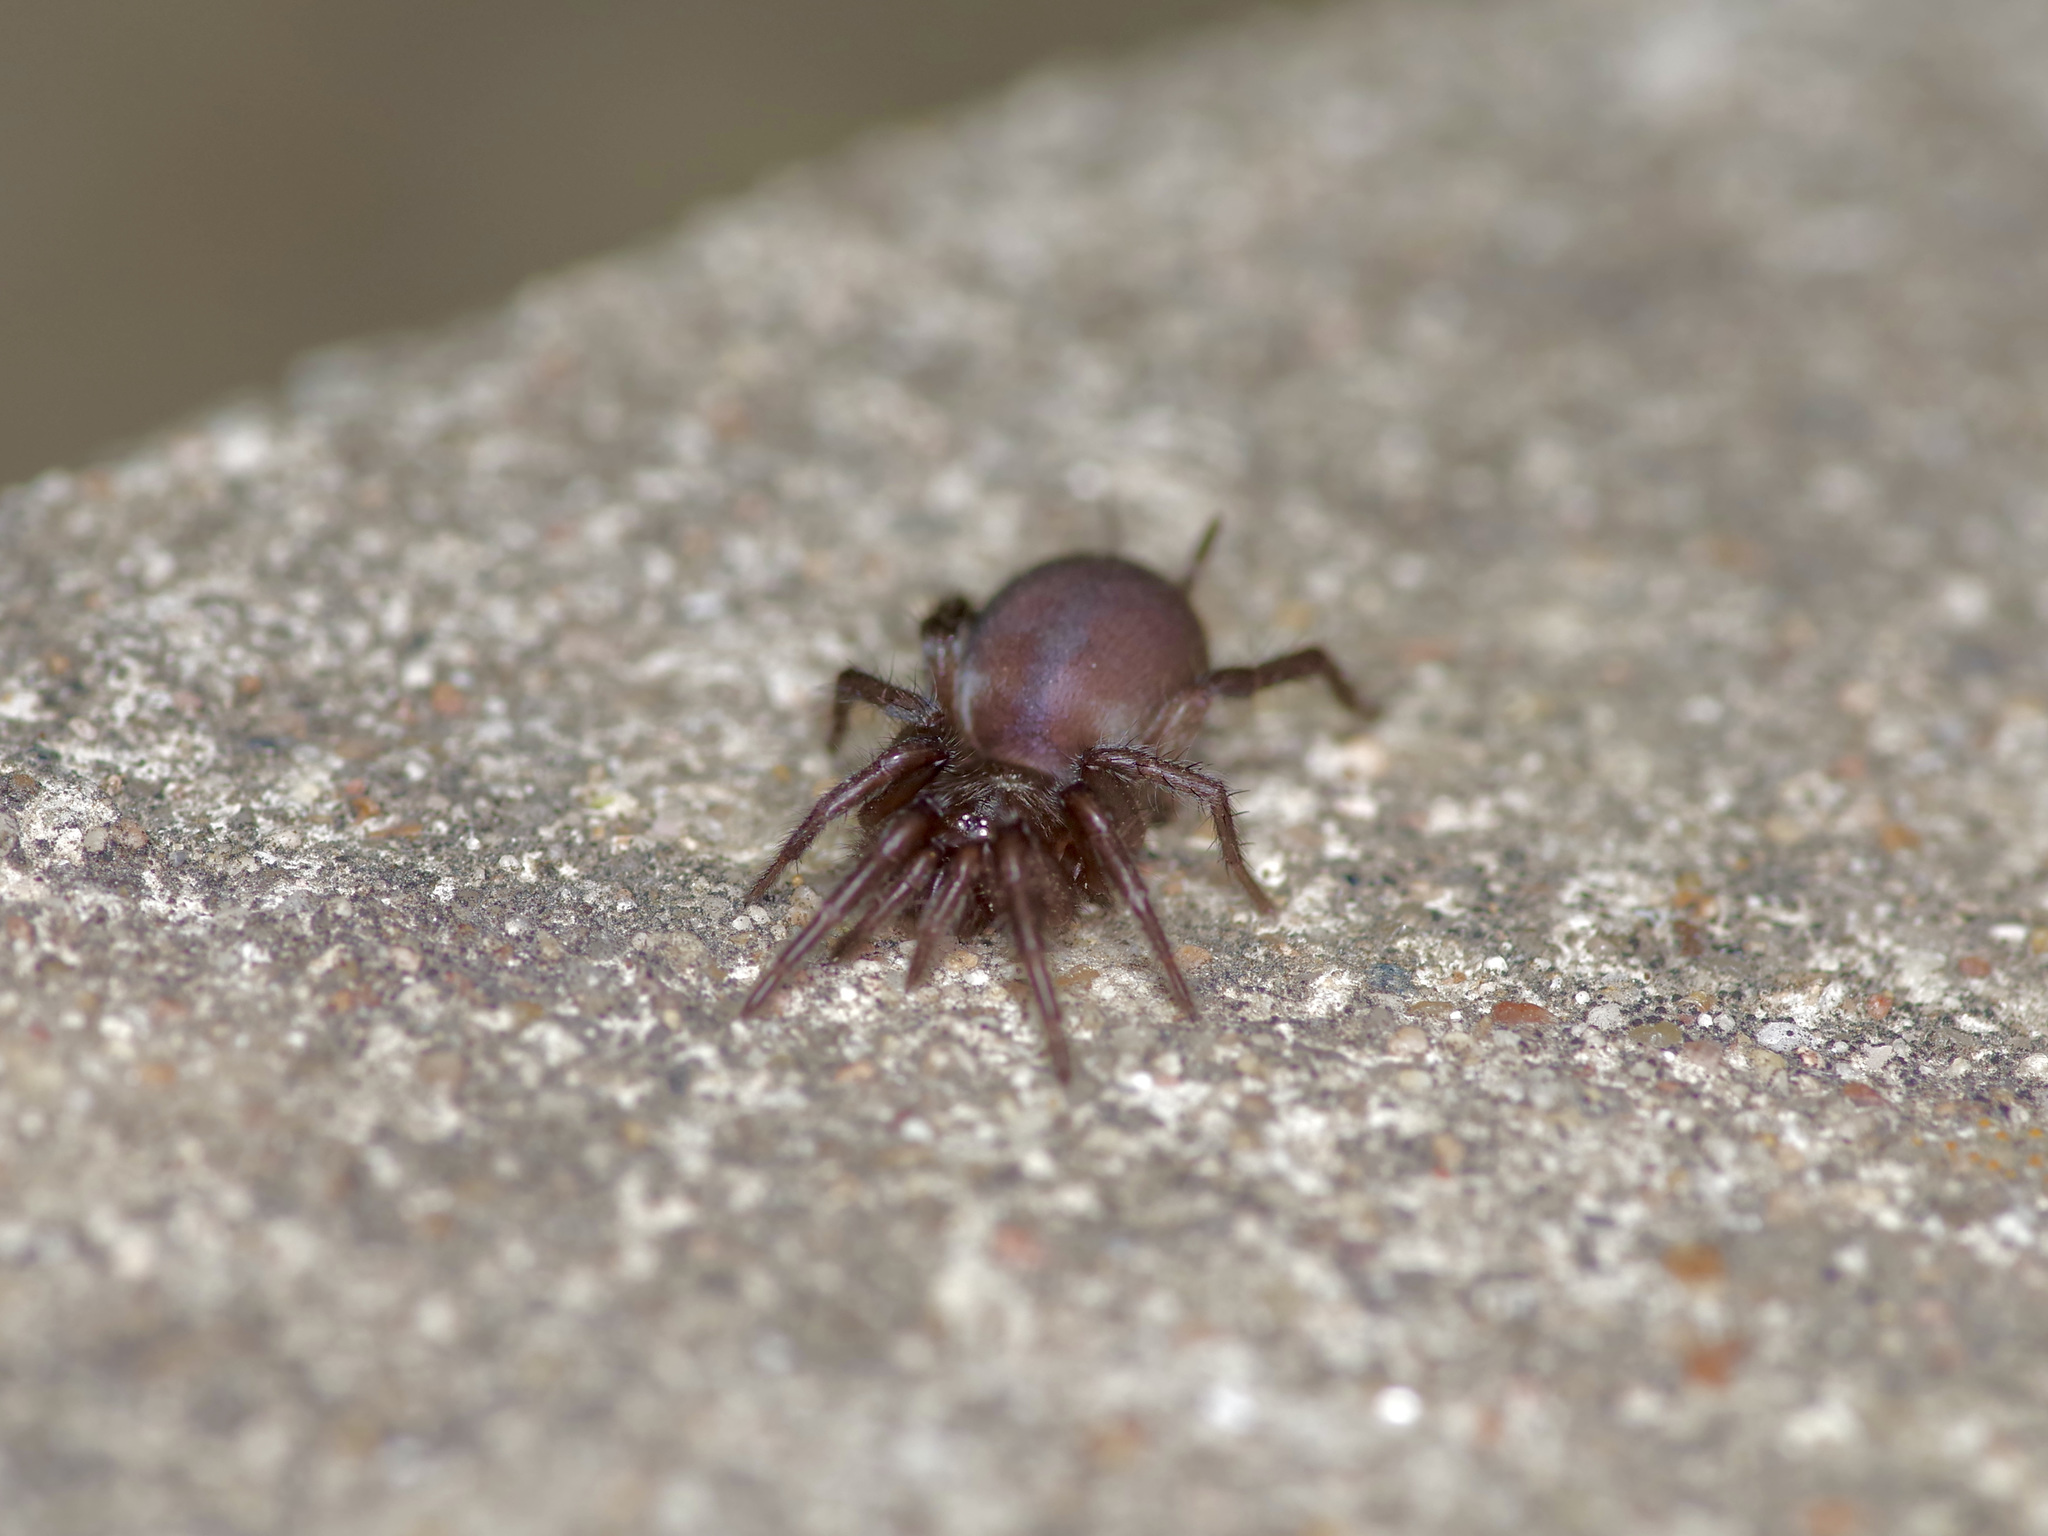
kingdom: Animalia
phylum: Arthropoda
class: Arachnida
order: Araneae
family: Euagridae
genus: Euagrus
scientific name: Euagrus chisoseus
